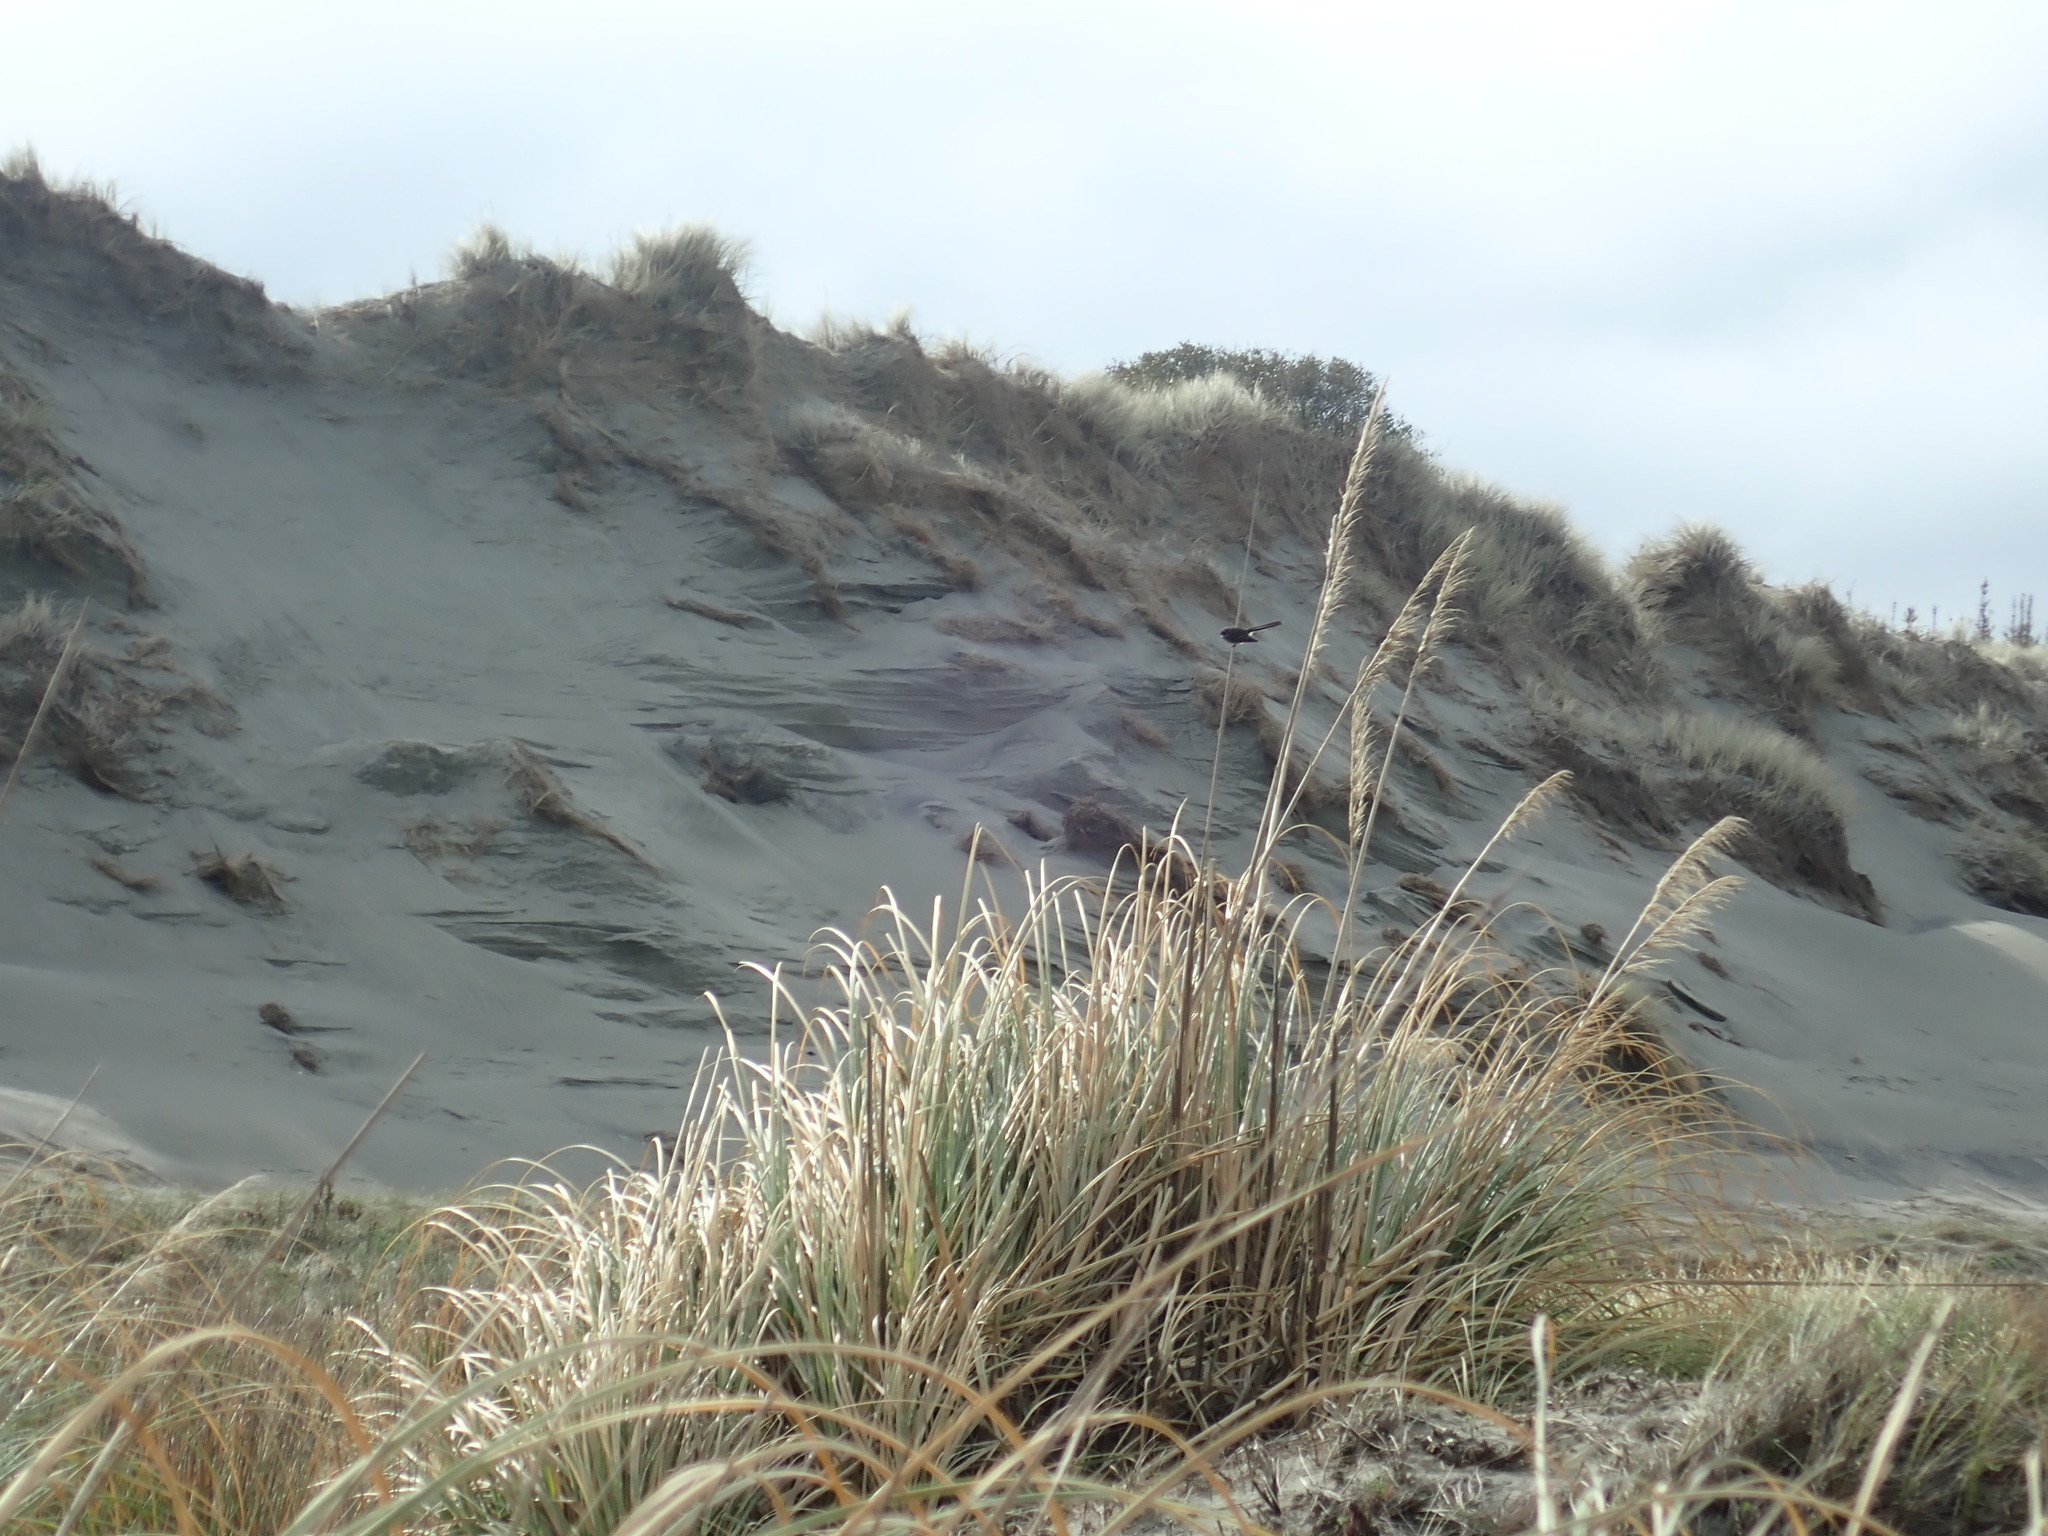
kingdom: Animalia
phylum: Chordata
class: Aves
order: Passeriformes
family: Rhipiduridae
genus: Rhipidura
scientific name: Rhipidura fuliginosa
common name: New zealand fantail
